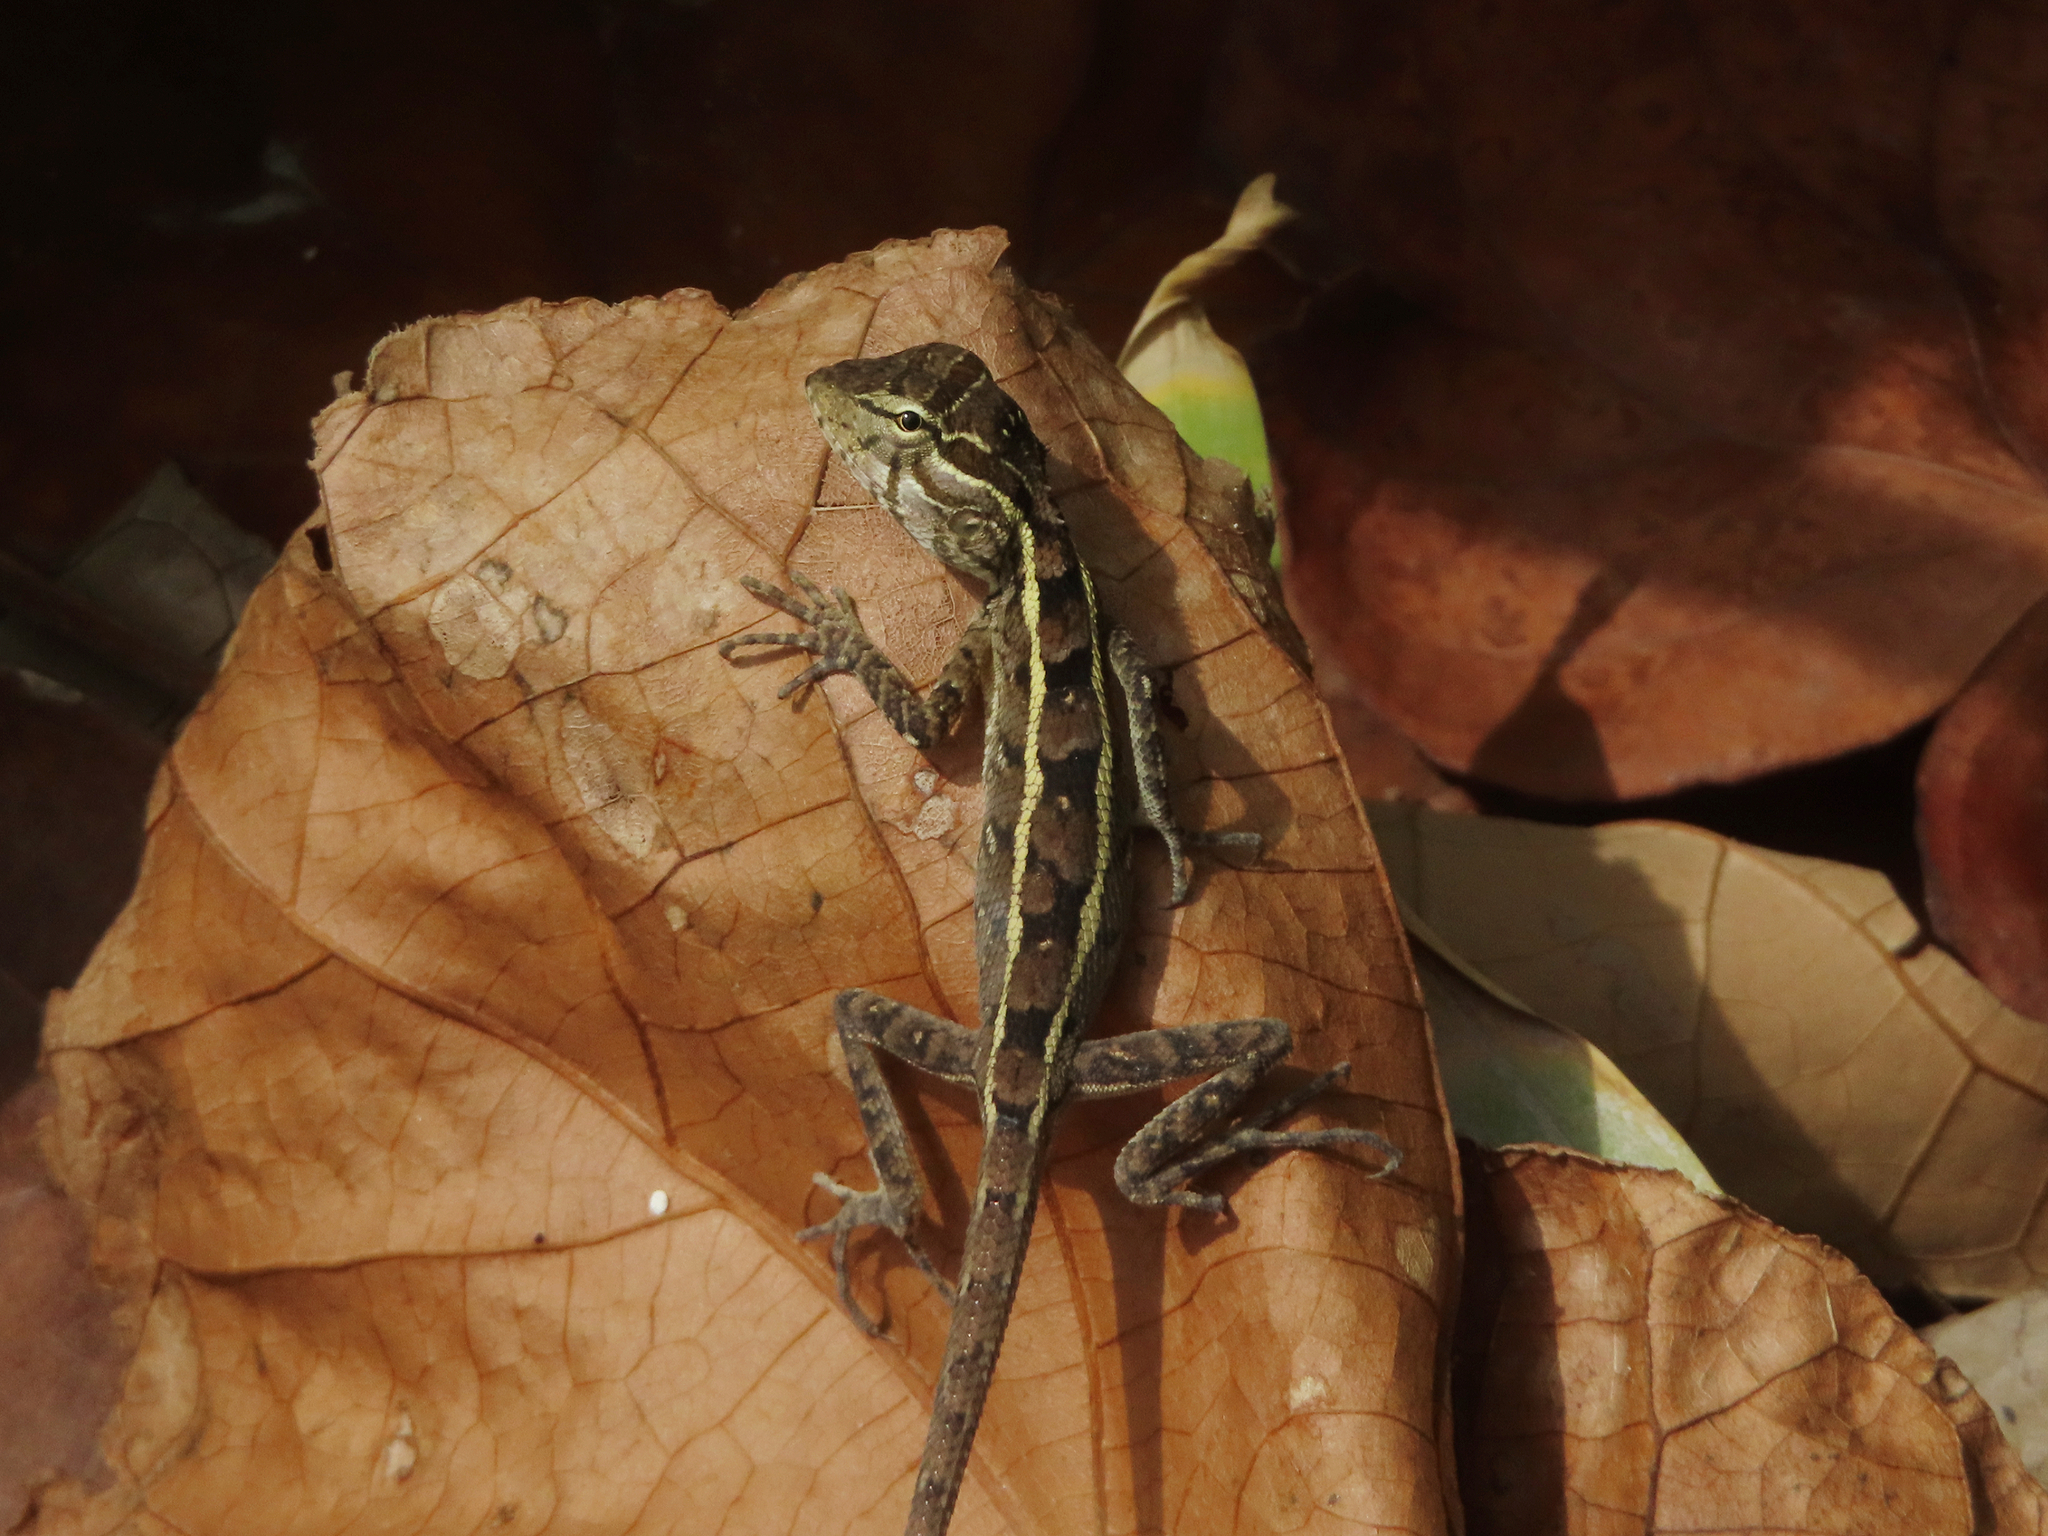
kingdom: Animalia
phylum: Chordata
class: Squamata
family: Agamidae
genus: Calotes
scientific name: Calotes versicolor
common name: Oriental garden lizard
